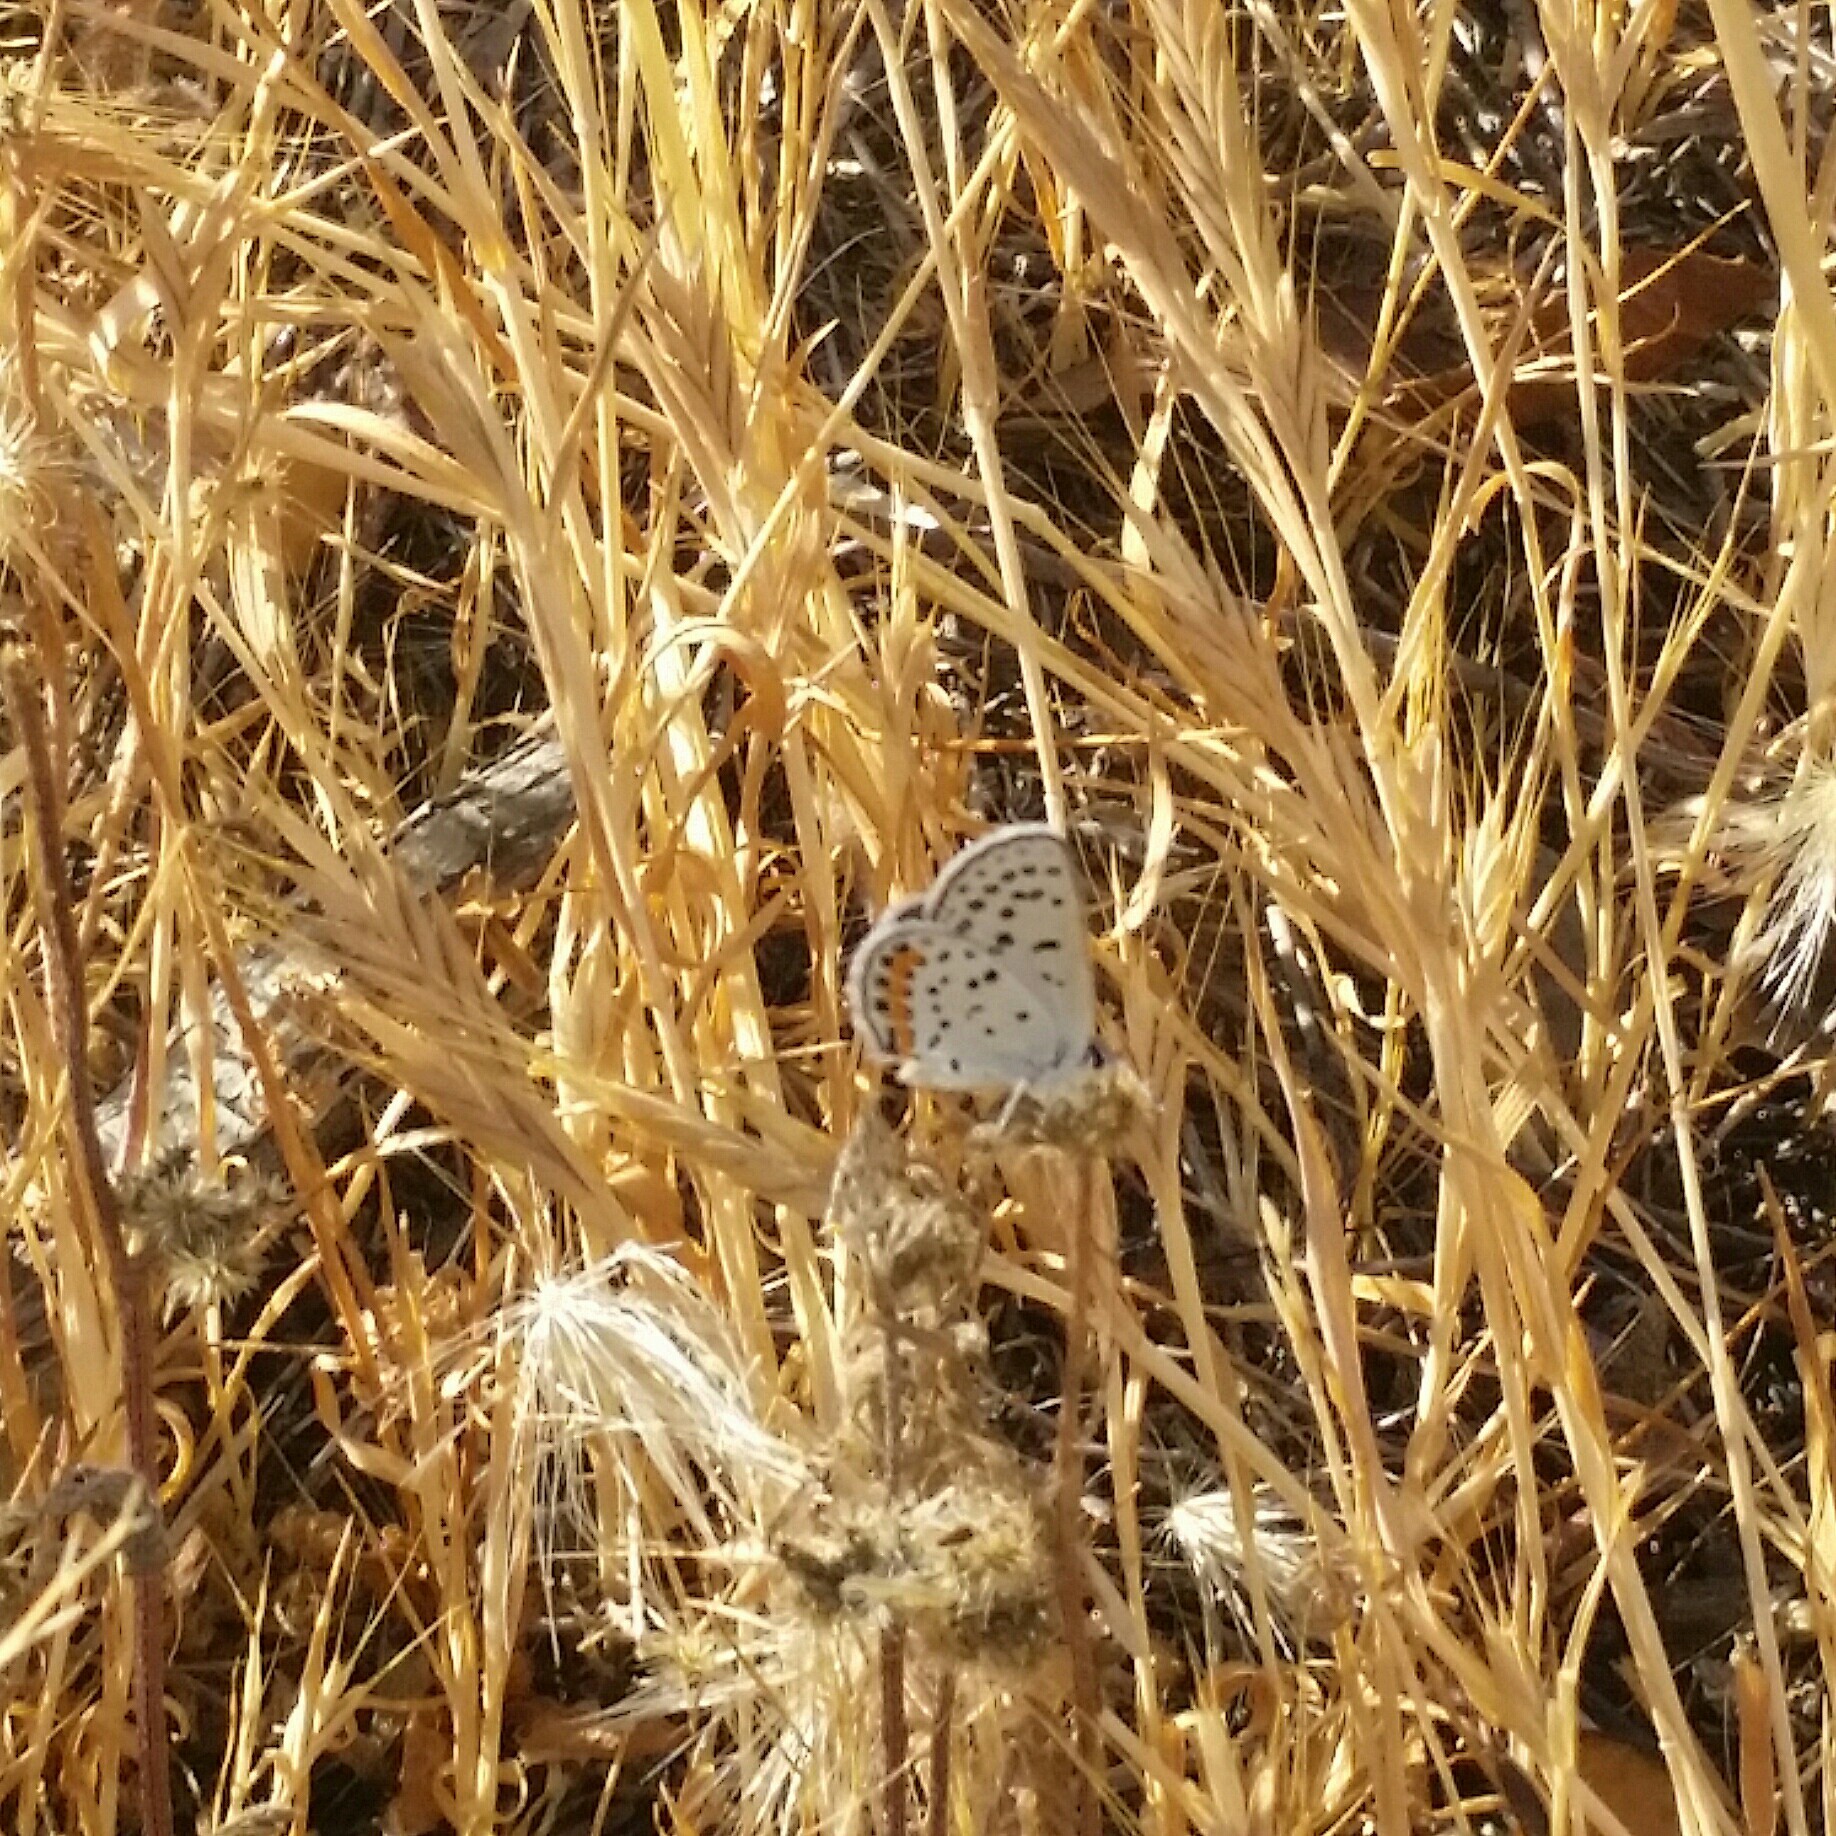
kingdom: Animalia
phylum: Arthropoda
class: Insecta
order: Lepidoptera
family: Lycaenidae
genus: Icaricia
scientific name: Icaricia acmon
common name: Acmon blue
